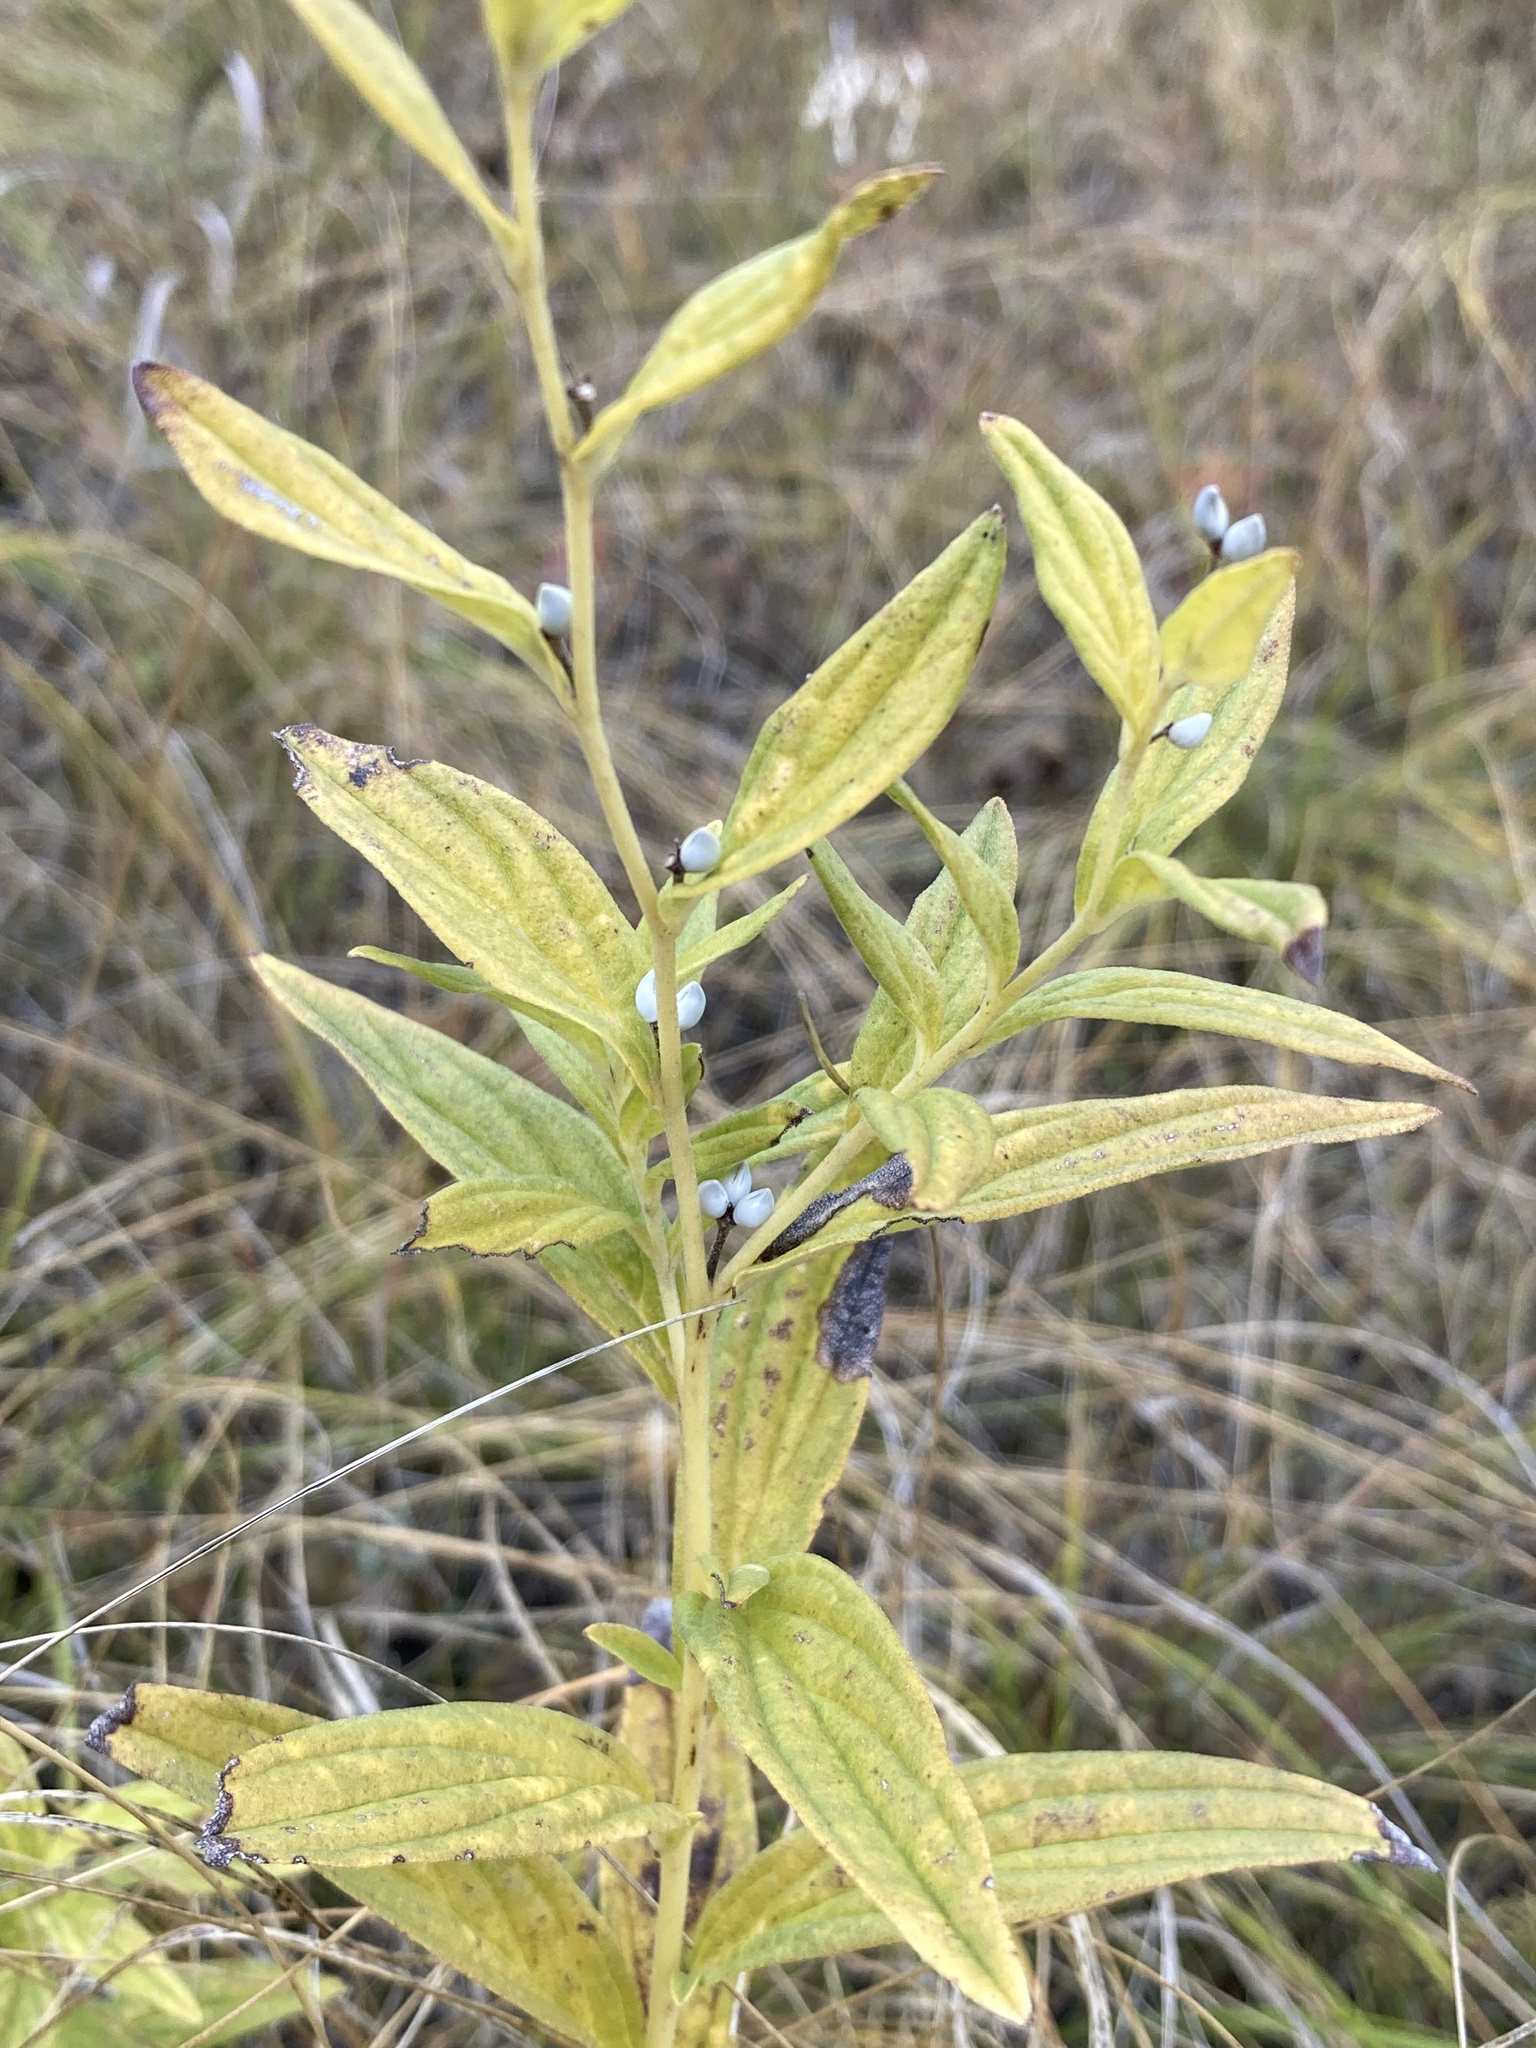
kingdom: Plantae
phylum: Tracheophyta
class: Magnoliopsida
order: Boraginales
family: Boraginaceae
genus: Lithospermum
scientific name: Lithospermum officinale
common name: Common gromwell
